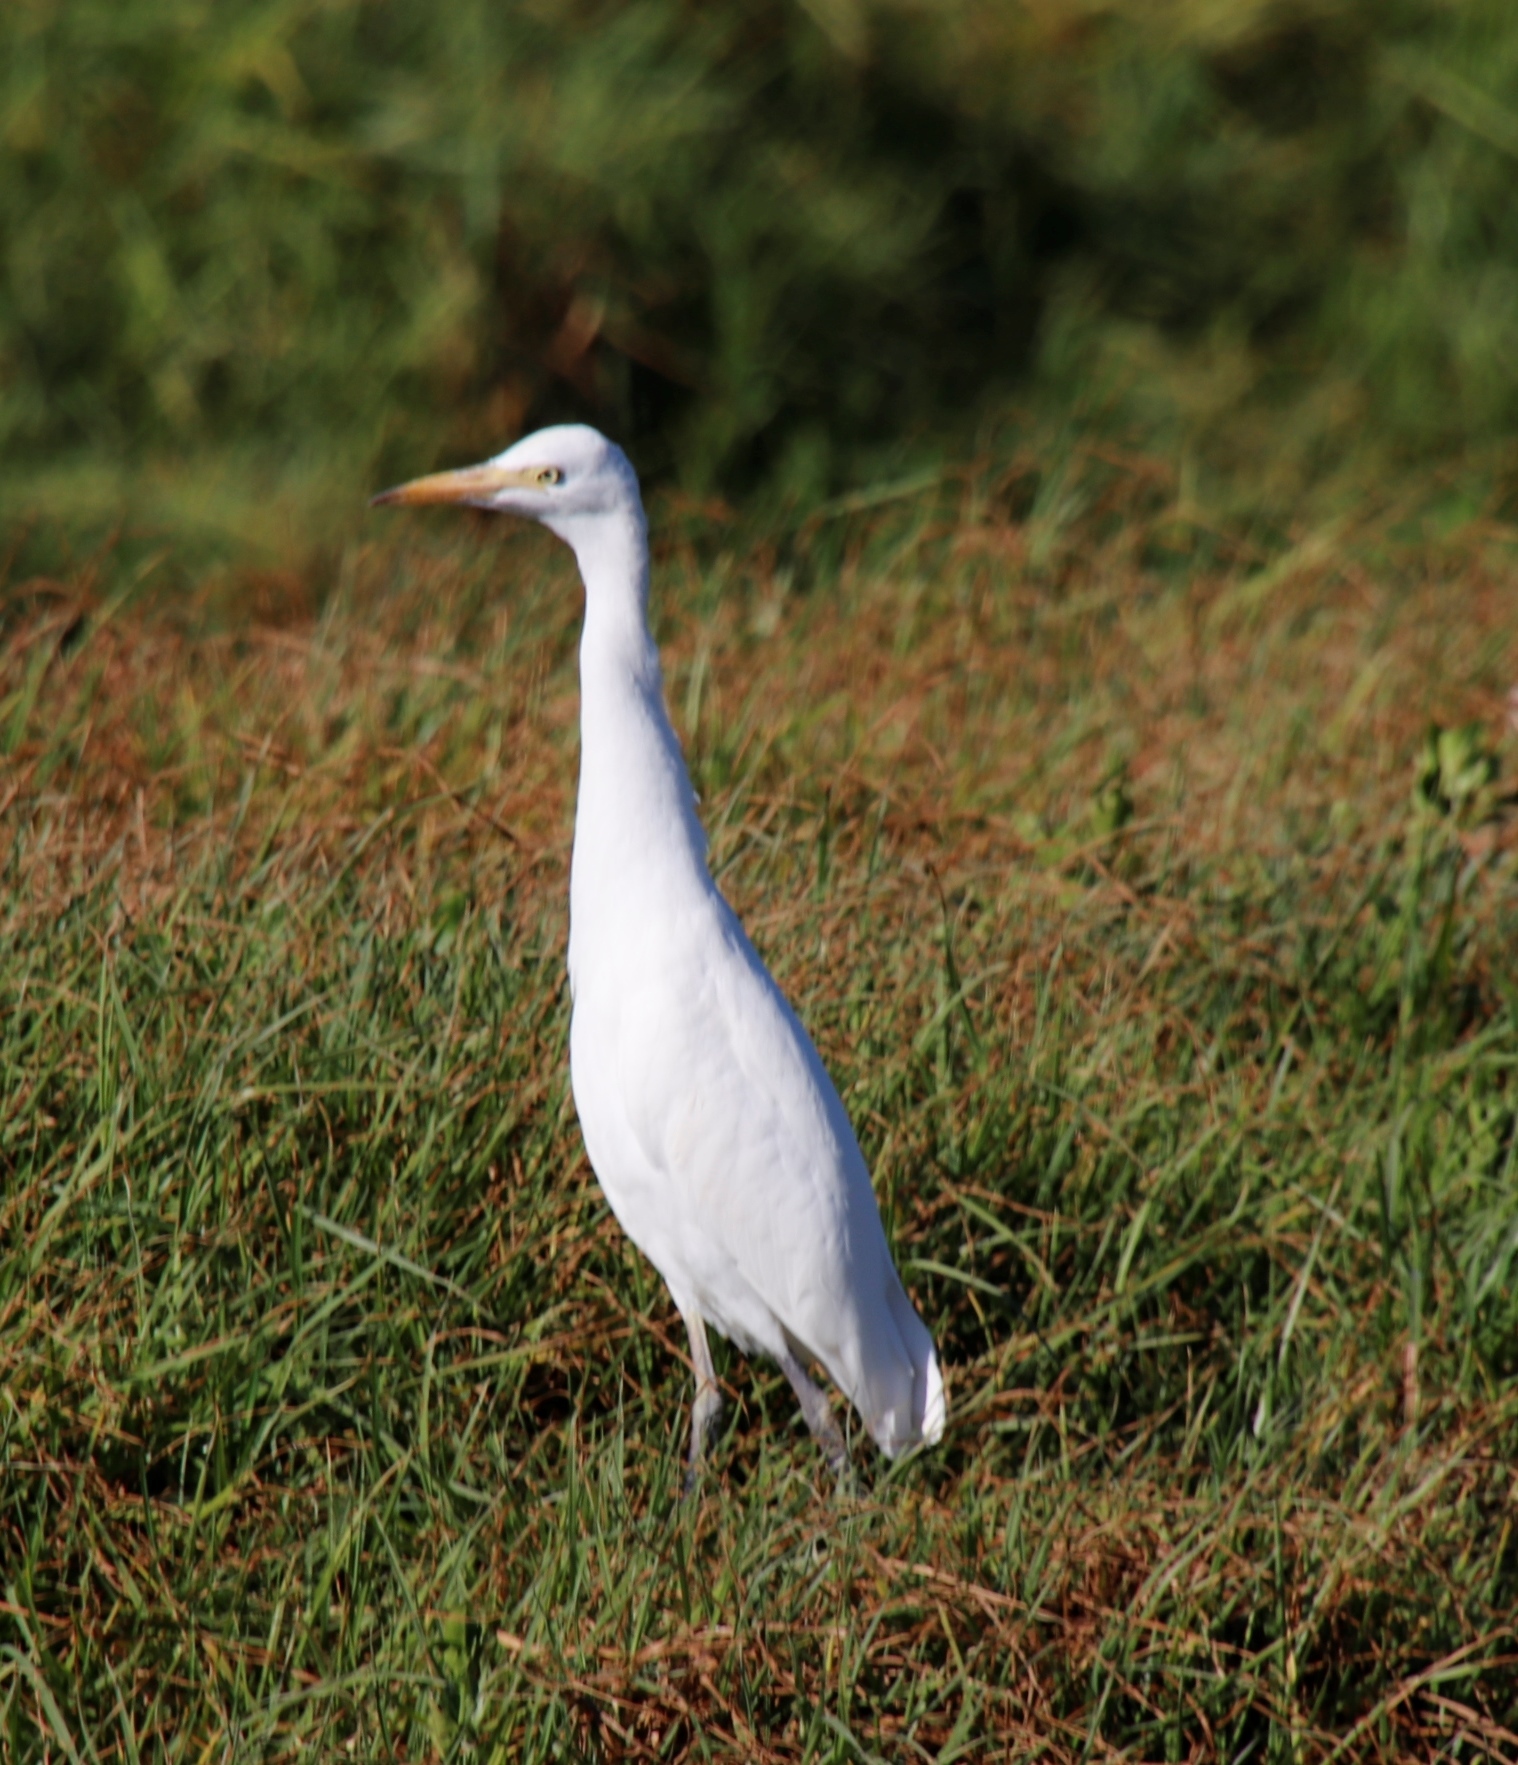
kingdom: Animalia
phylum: Chordata
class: Aves
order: Pelecaniformes
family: Ardeidae
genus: Bubulcus
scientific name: Bubulcus ibis
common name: Cattle egret
